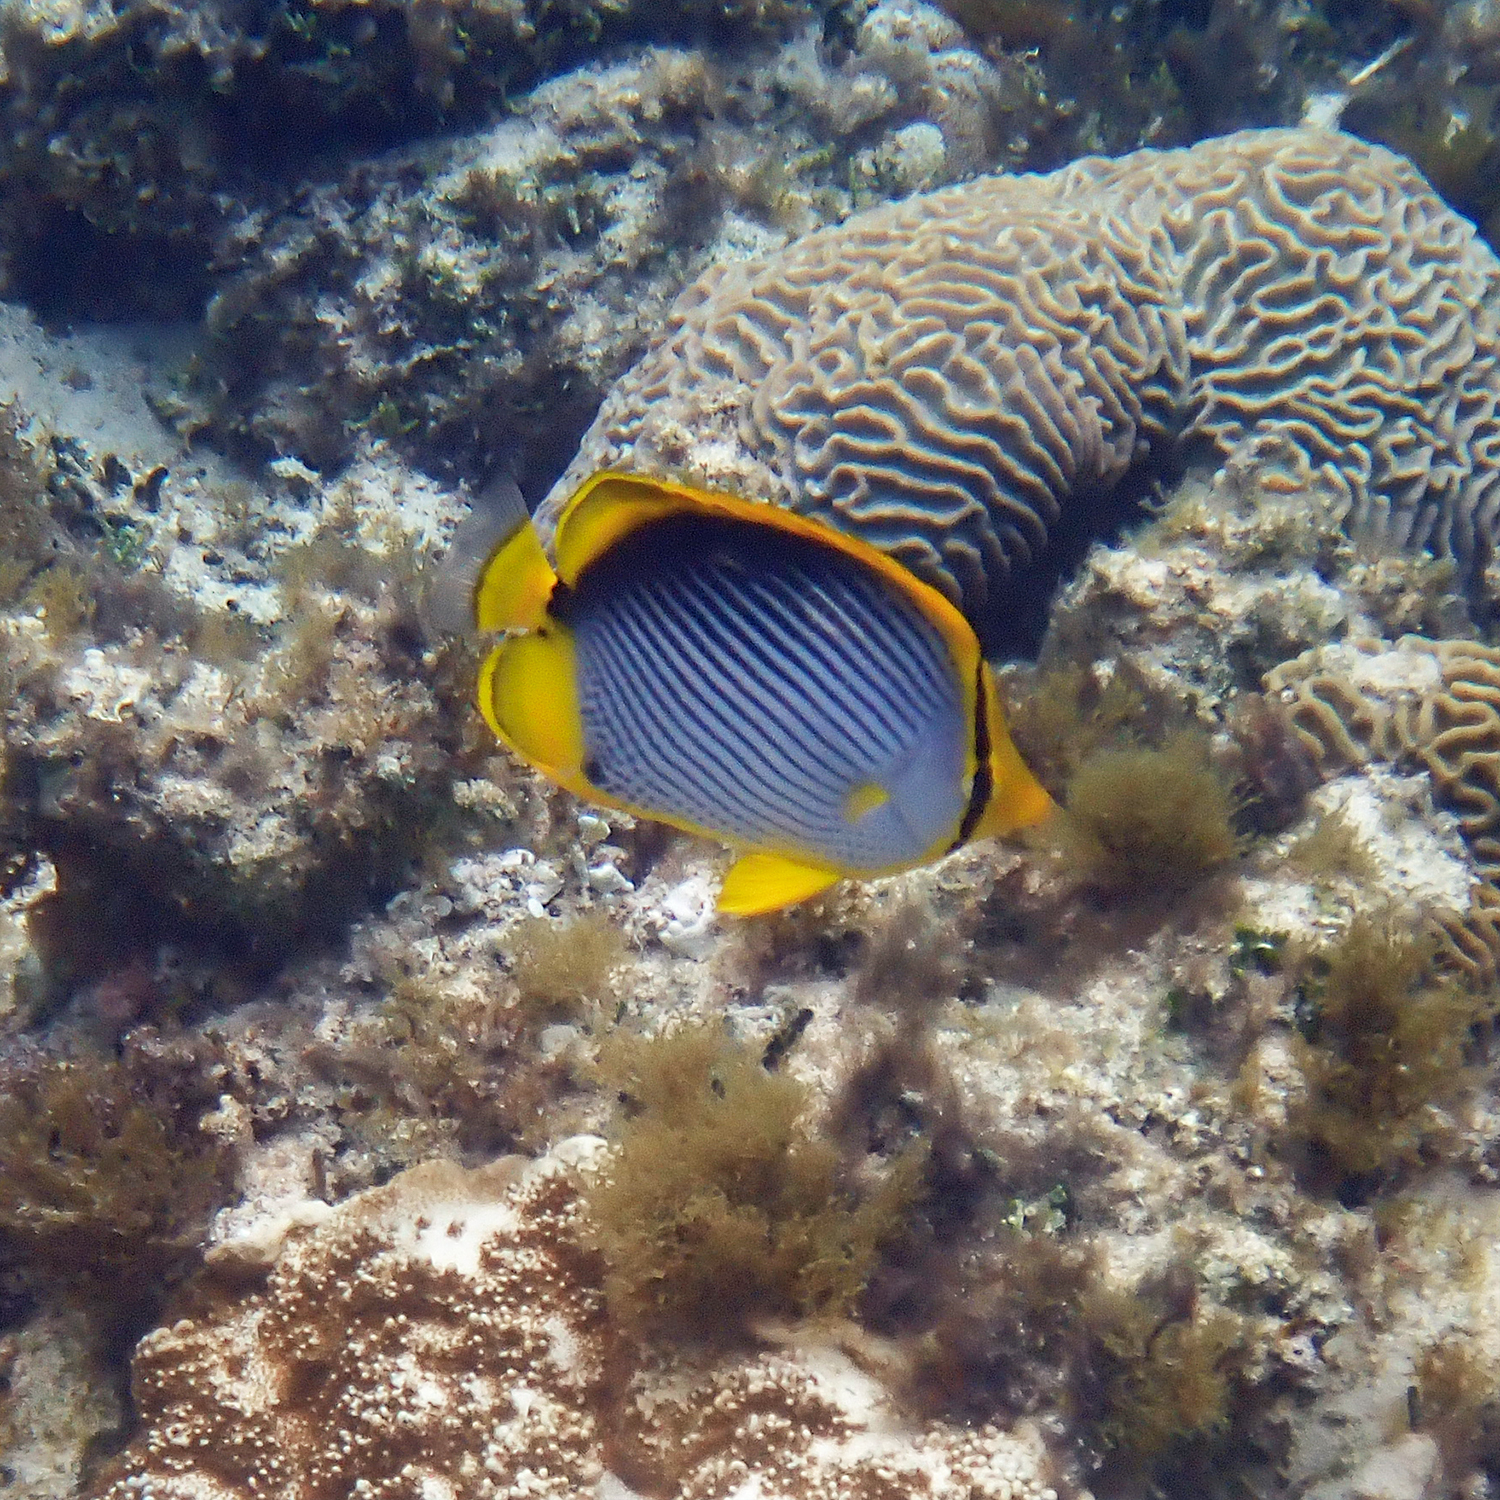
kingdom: Animalia
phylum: Chordata
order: Perciformes
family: Chaetodontidae
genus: Chaetodon
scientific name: Chaetodon melannotus
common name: Blackback butterflyfish
